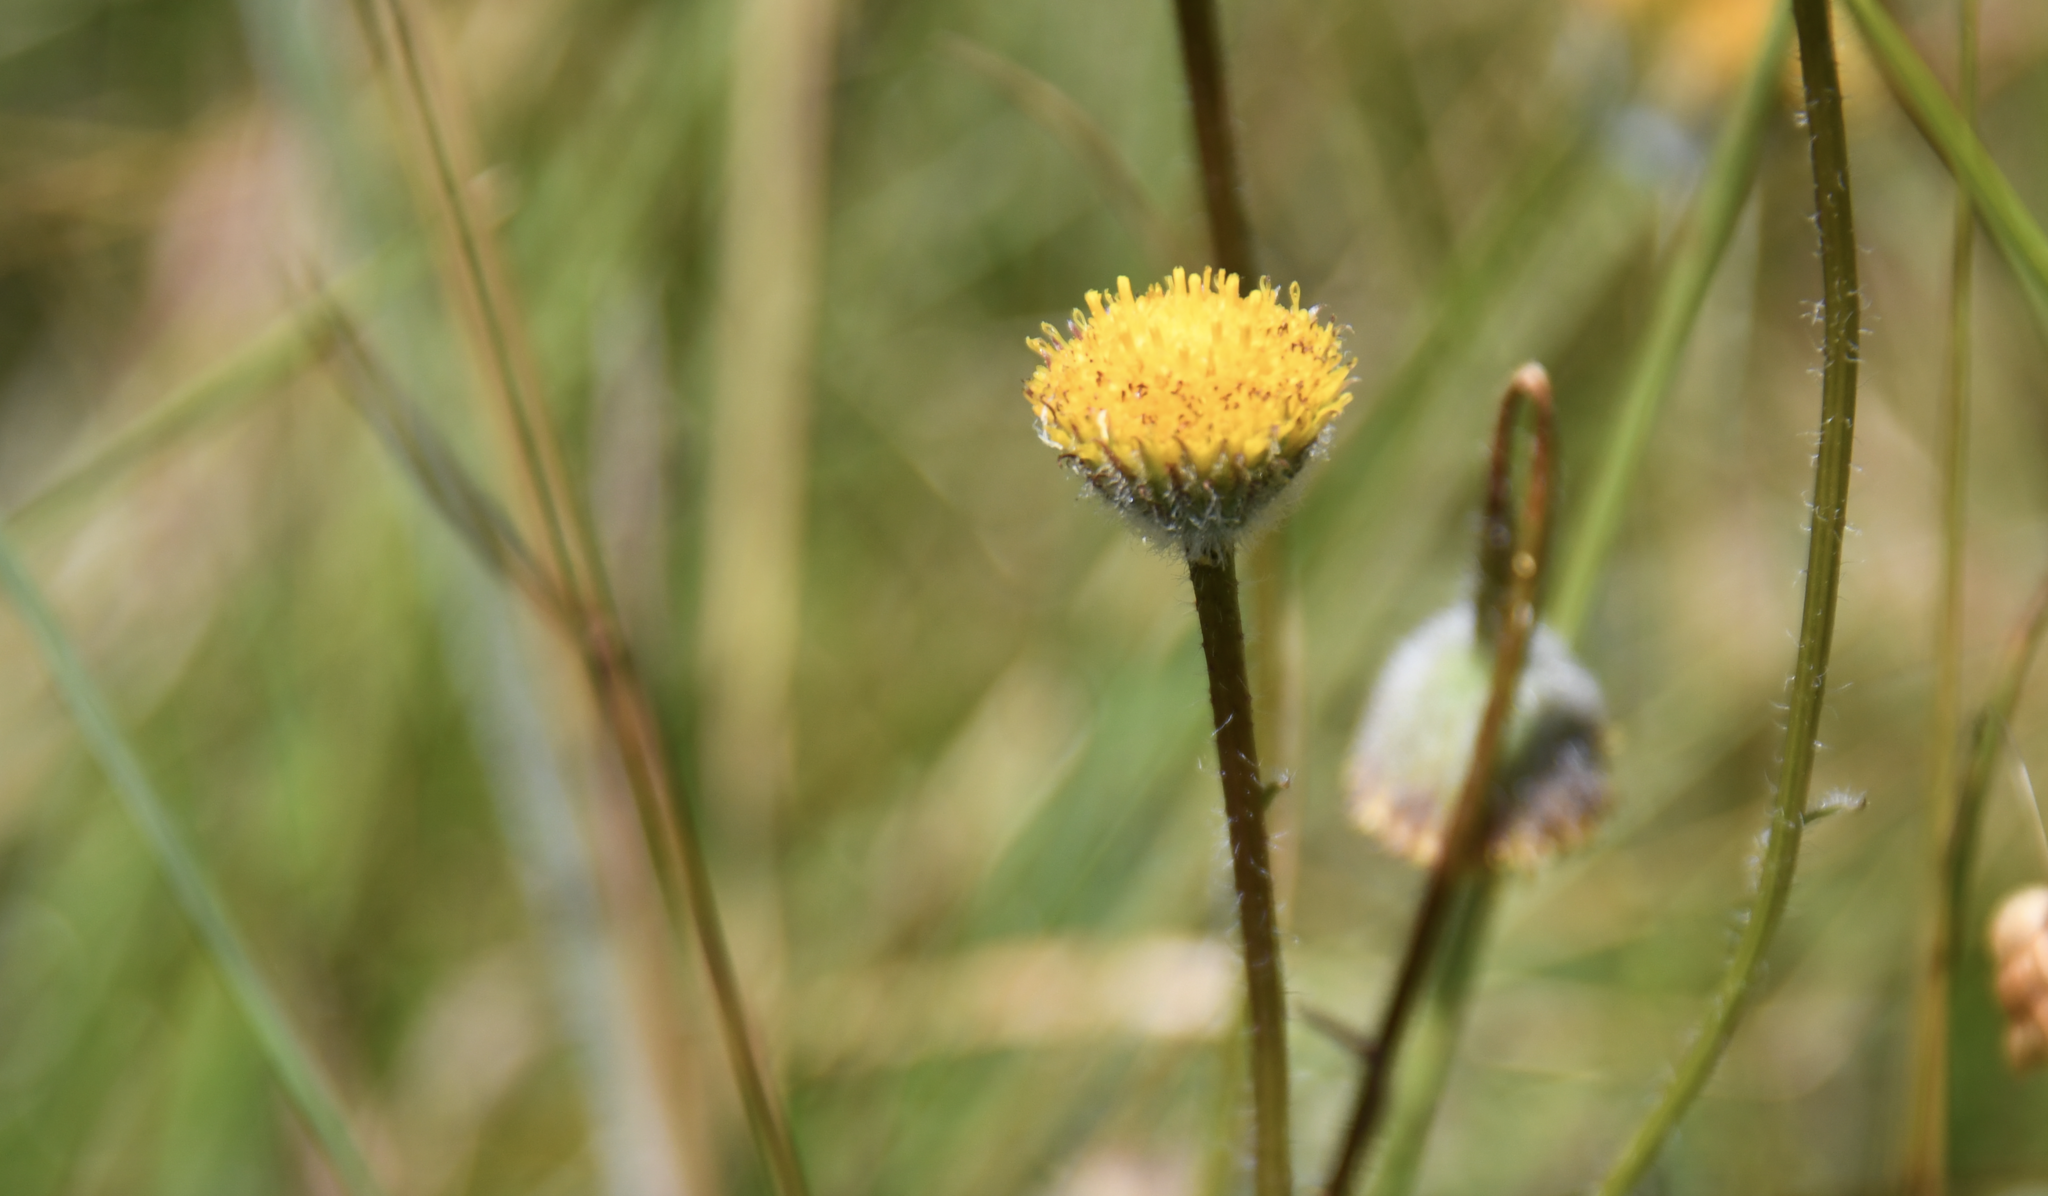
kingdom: Plantae
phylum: Tracheophyta
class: Magnoliopsida
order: Asterales
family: Asteraceae
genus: Erigeron
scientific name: Erigeron supplex
